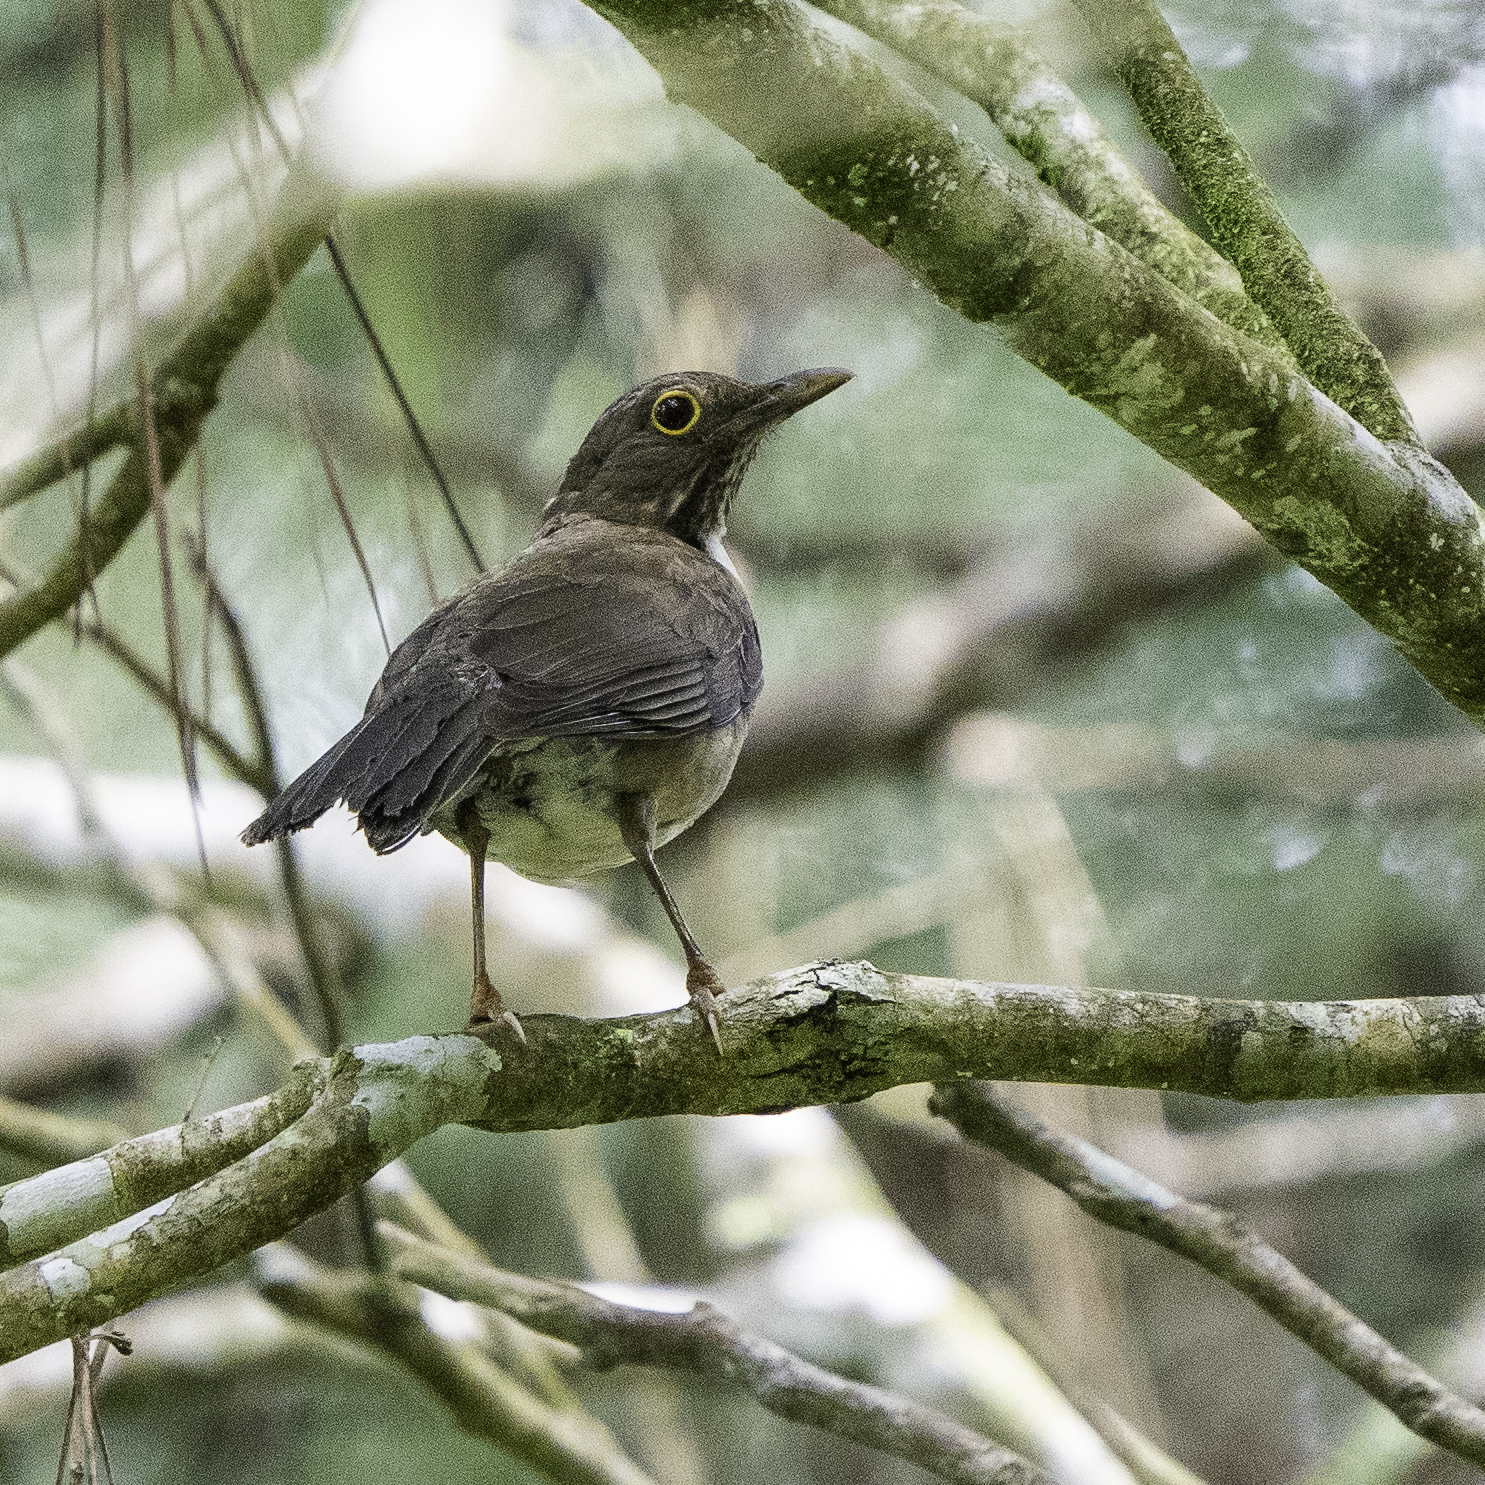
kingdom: Animalia
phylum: Chordata
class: Aves
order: Passeriformes
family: Turdidae
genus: Turdus
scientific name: Turdus assimilis
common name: White-throated thrush
